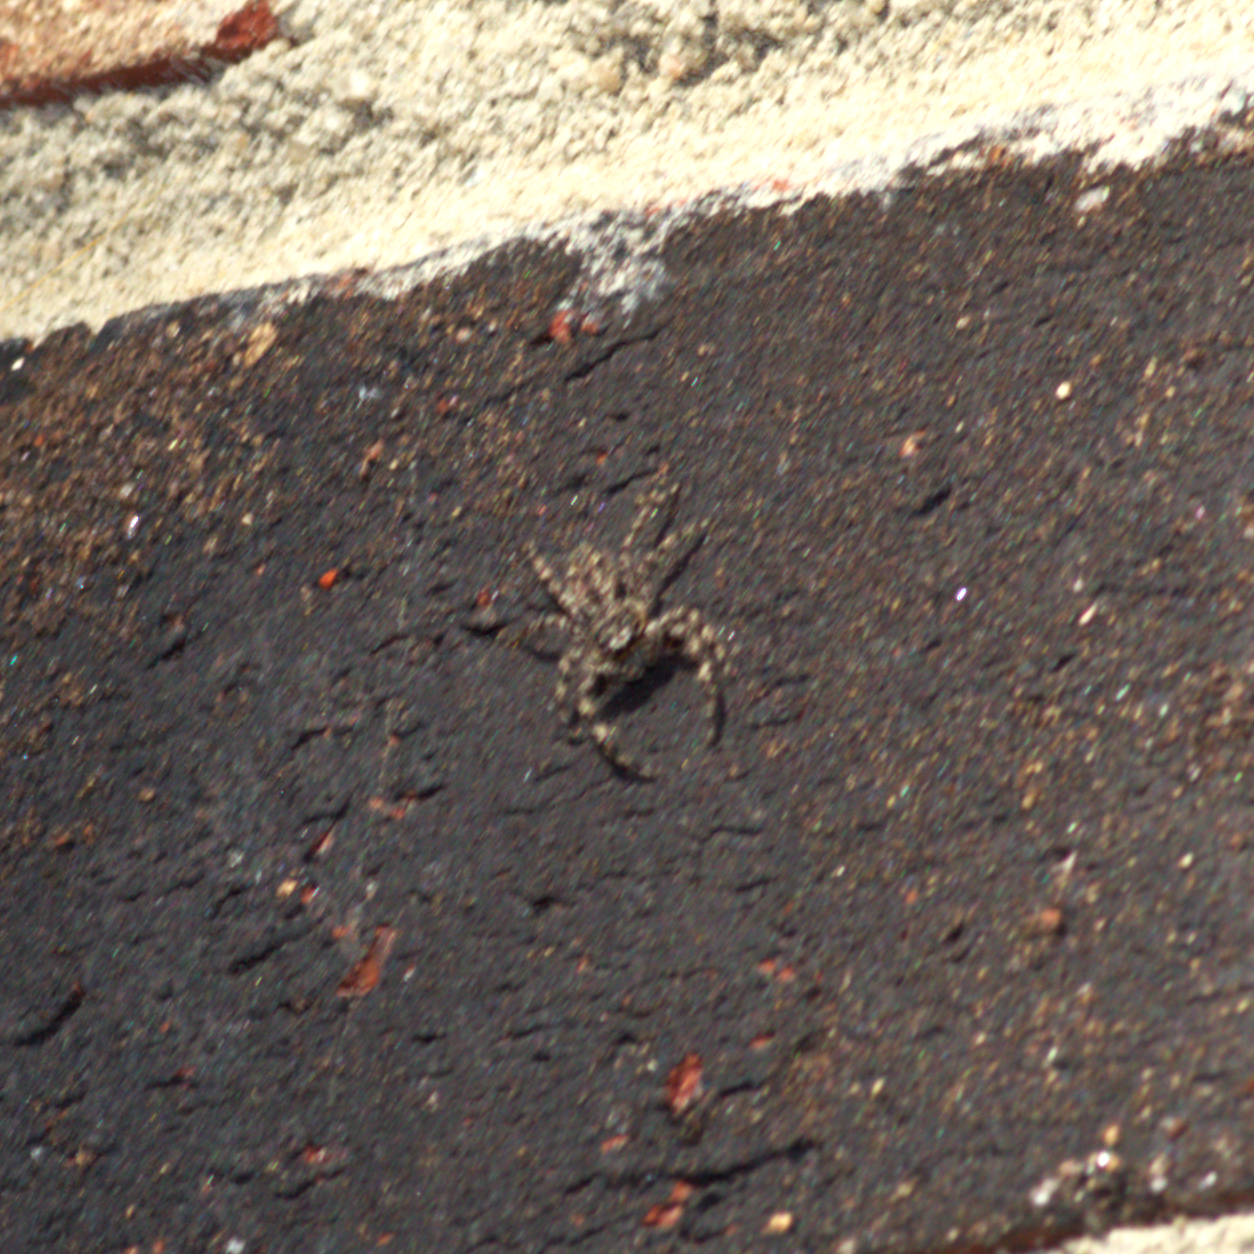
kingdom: Animalia
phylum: Arthropoda
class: Arachnida
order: Araneae
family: Salticidae
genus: Platycryptus
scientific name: Platycryptus undatus
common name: Tan jumping spider
